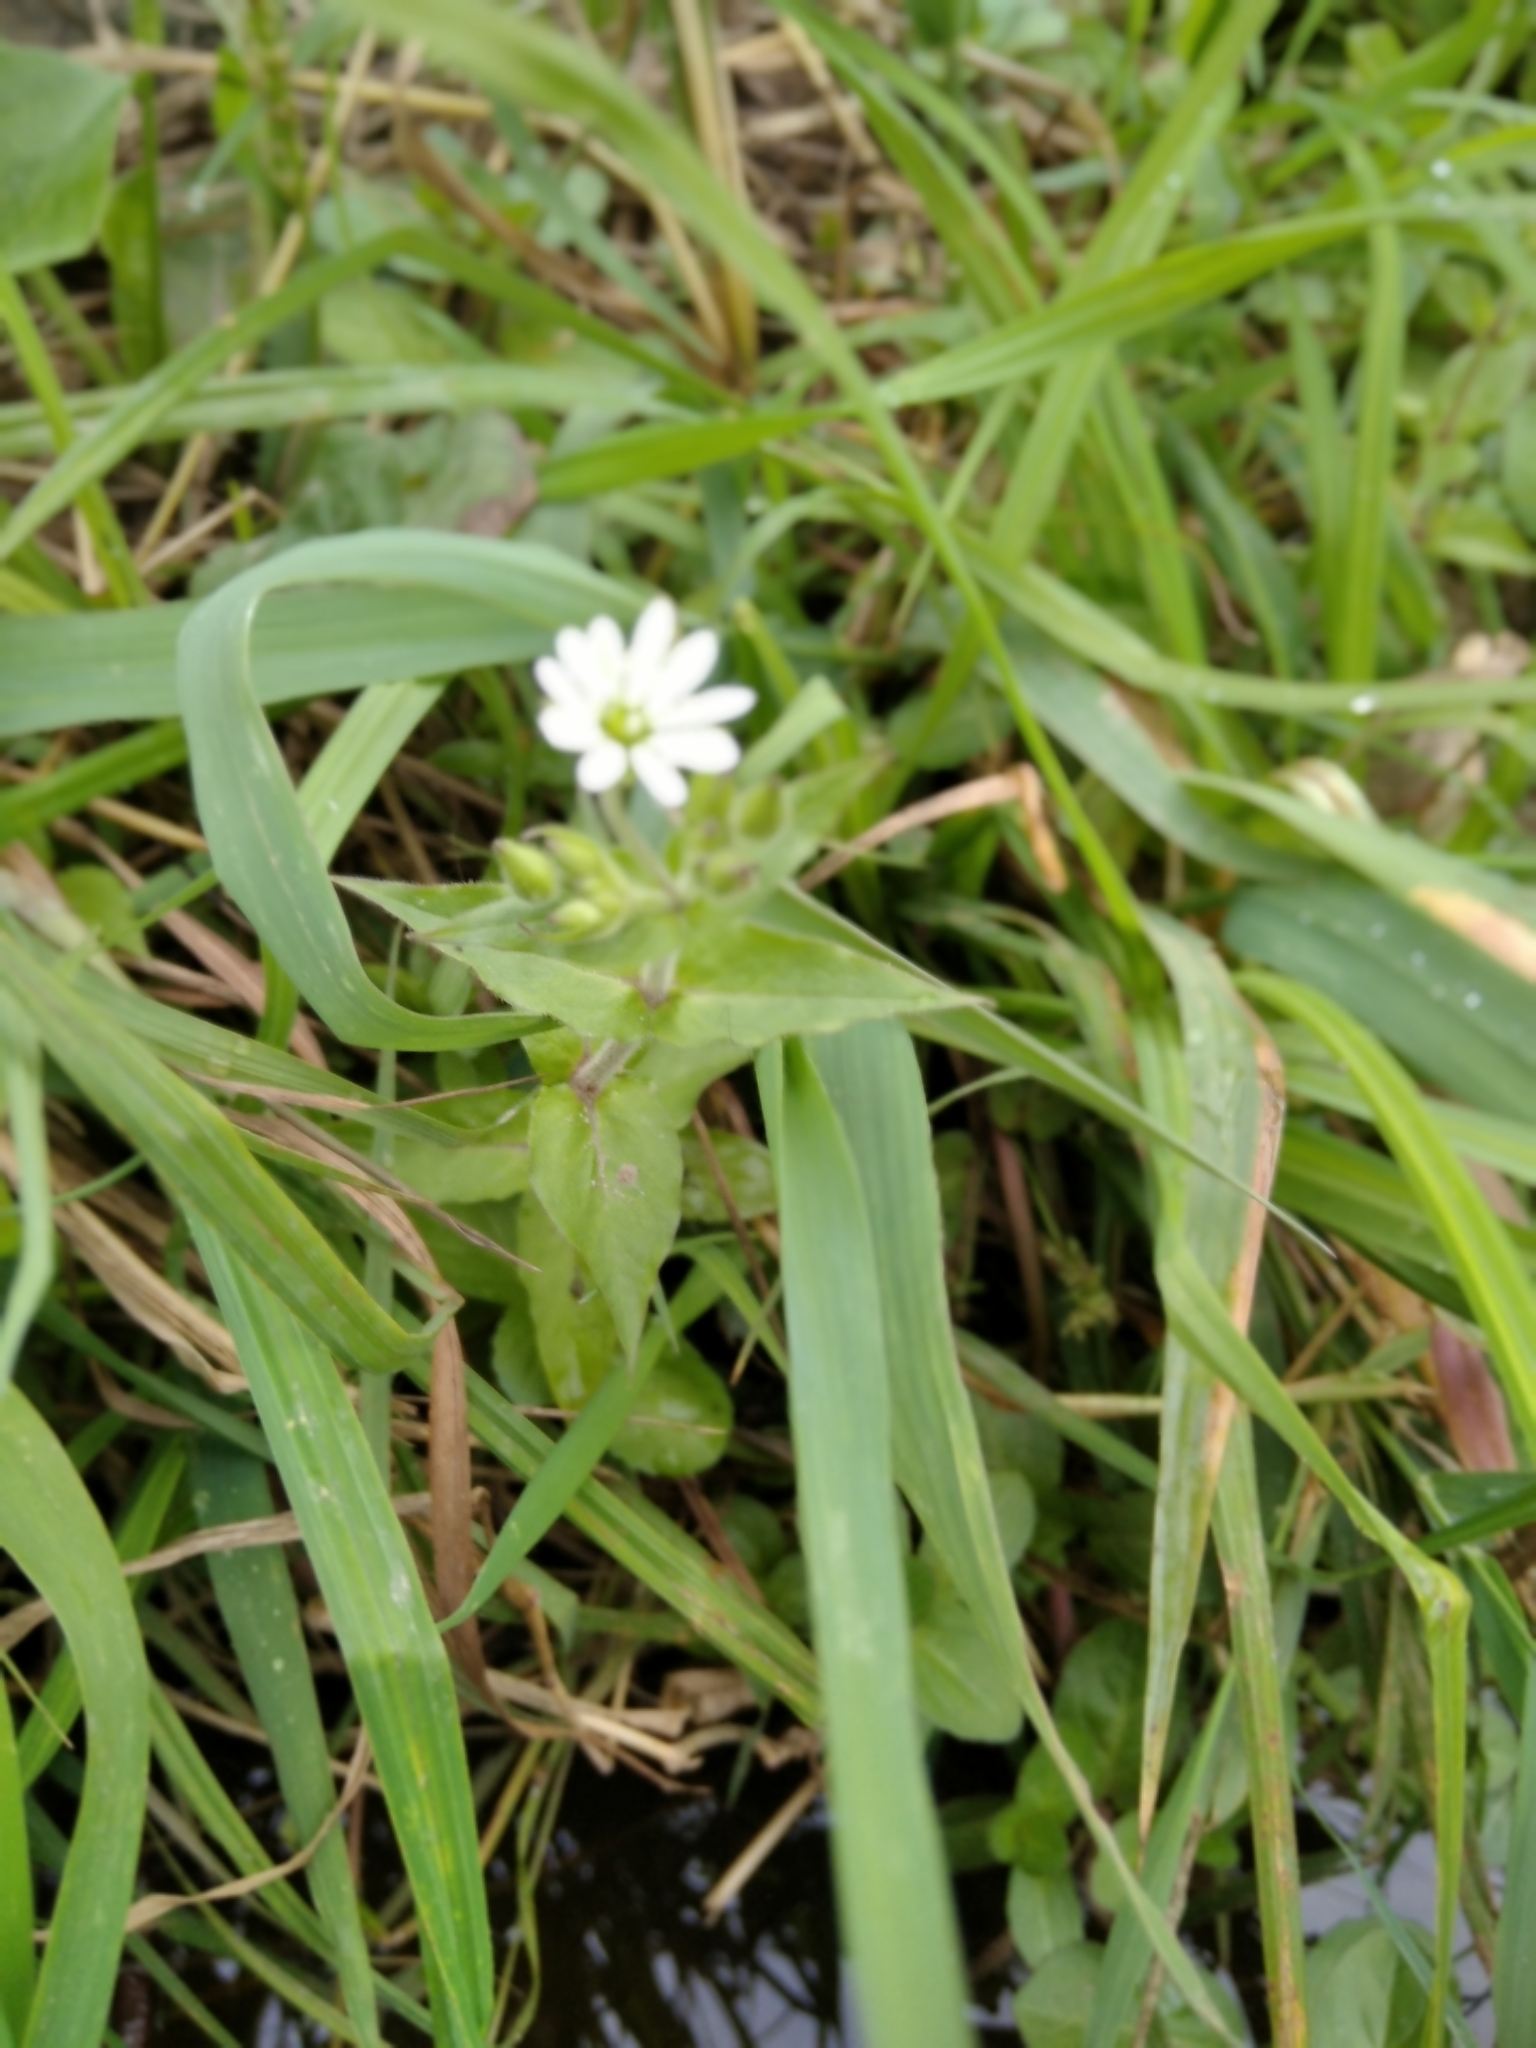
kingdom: Plantae
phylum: Tracheophyta
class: Magnoliopsida
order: Caryophyllales
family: Caryophyllaceae
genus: Stellaria
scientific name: Stellaria aquatica
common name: Water chickweed
